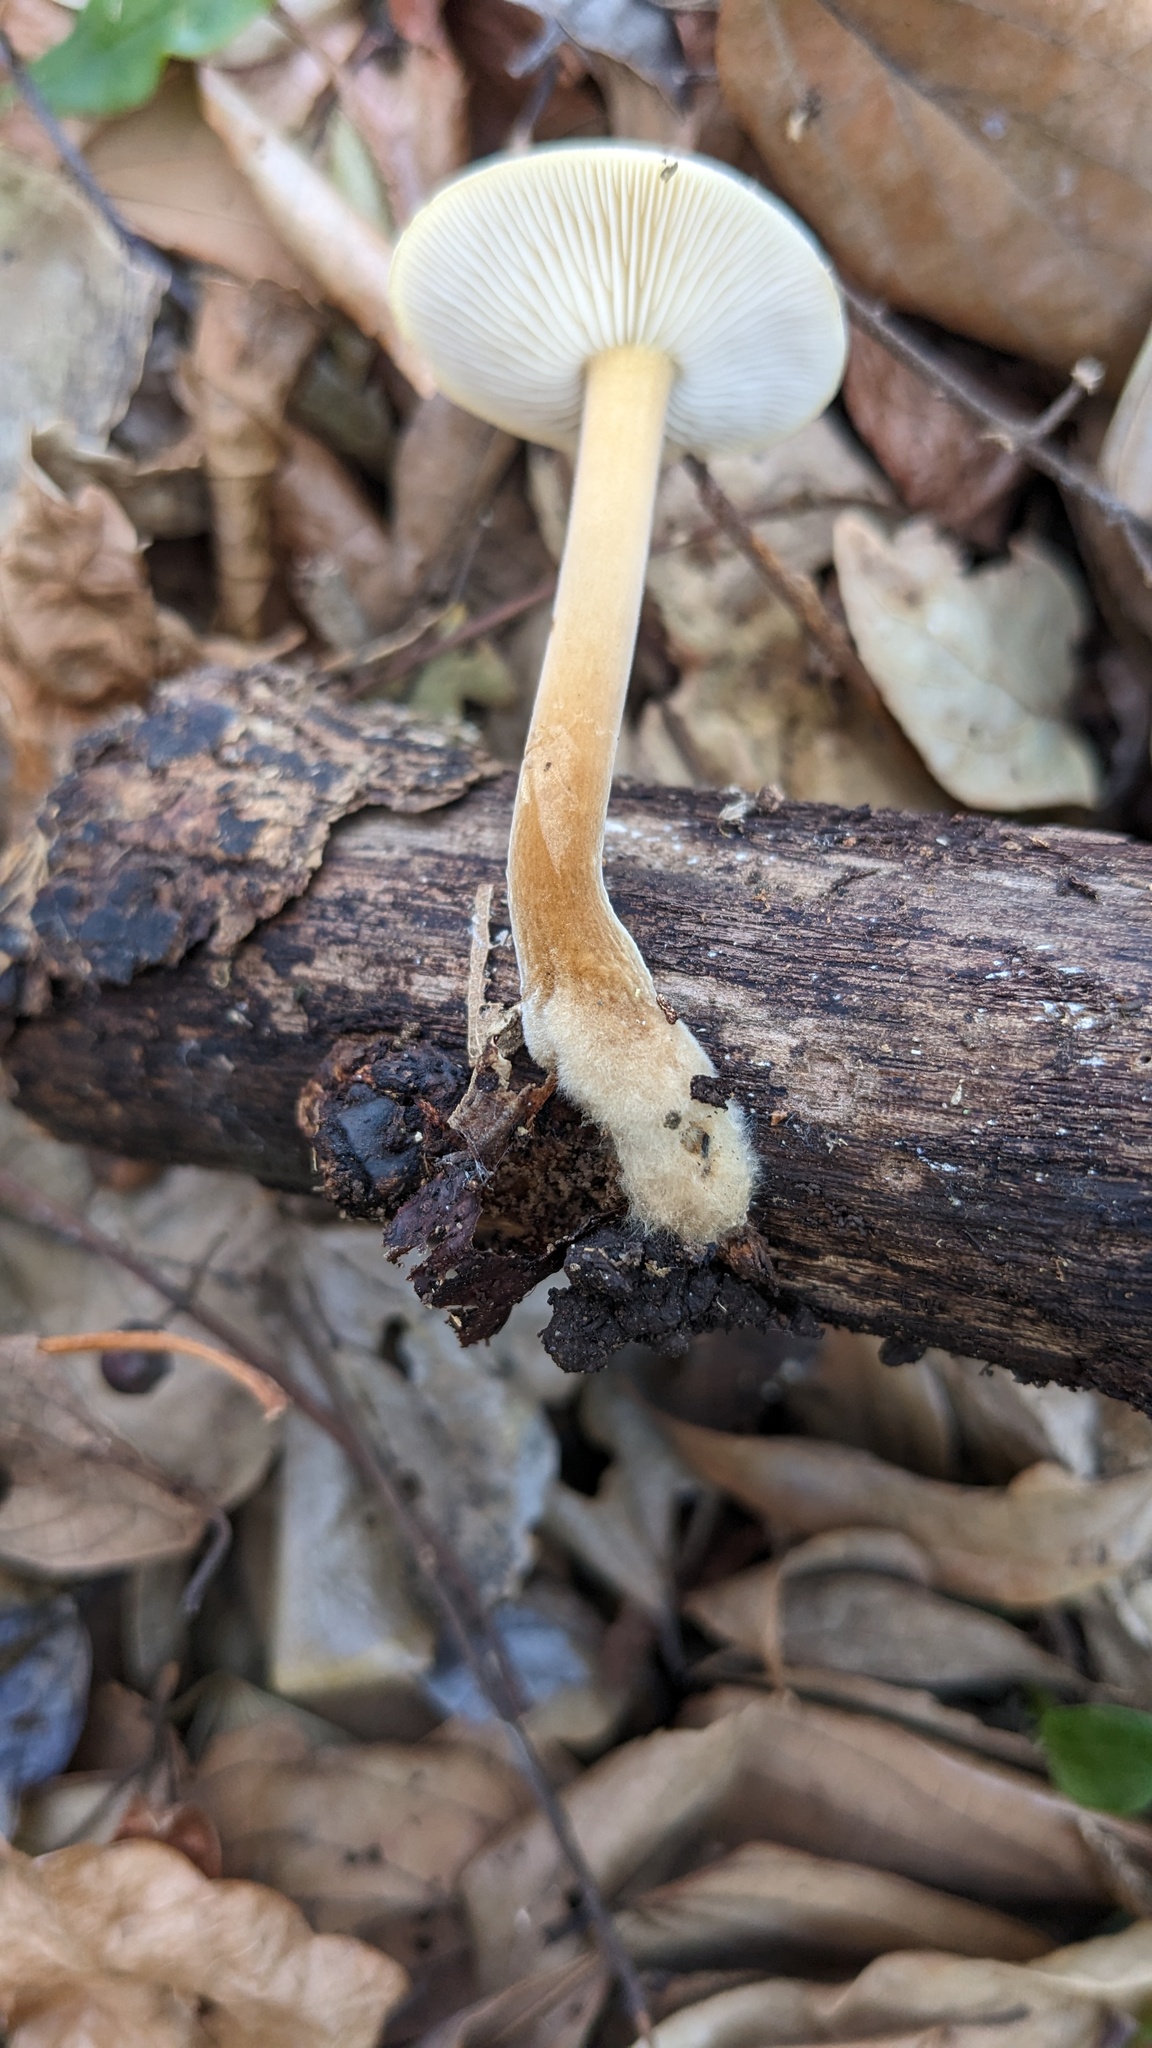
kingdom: Fungi
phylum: Basidiomycota
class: Agaricomycetes
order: Agaricales
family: Physalacriaceae
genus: Flammulina
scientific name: Flammulina velutipes
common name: Velvet shank
